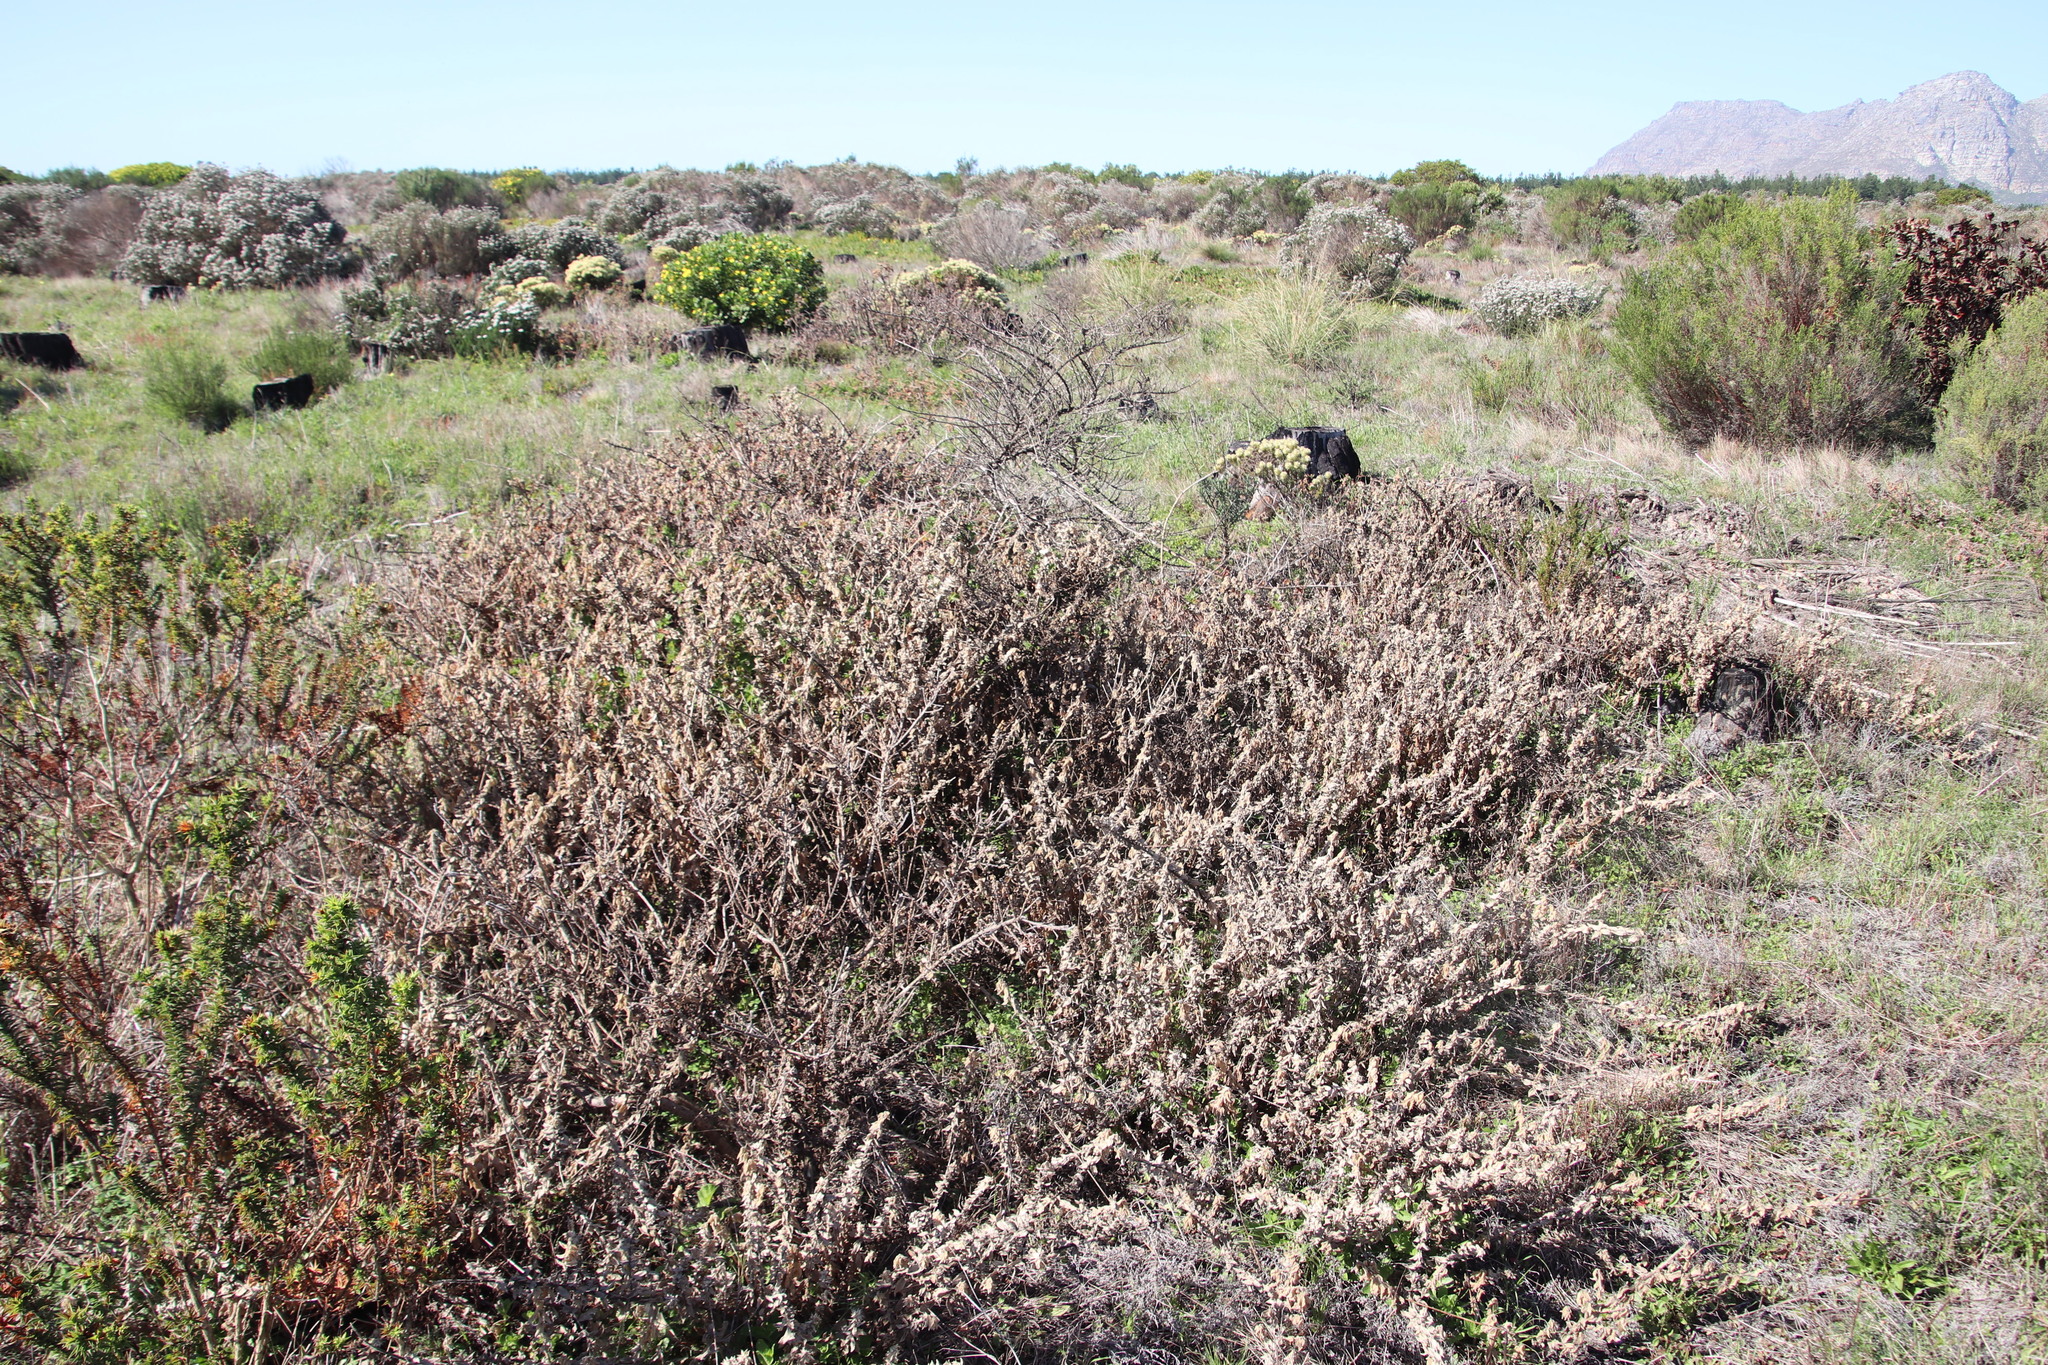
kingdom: Plantae
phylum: Tracheophyta
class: Magnoliopsida
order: Lamiales
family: Scrophulariaceae
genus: Oftia
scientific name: Oftia africana
